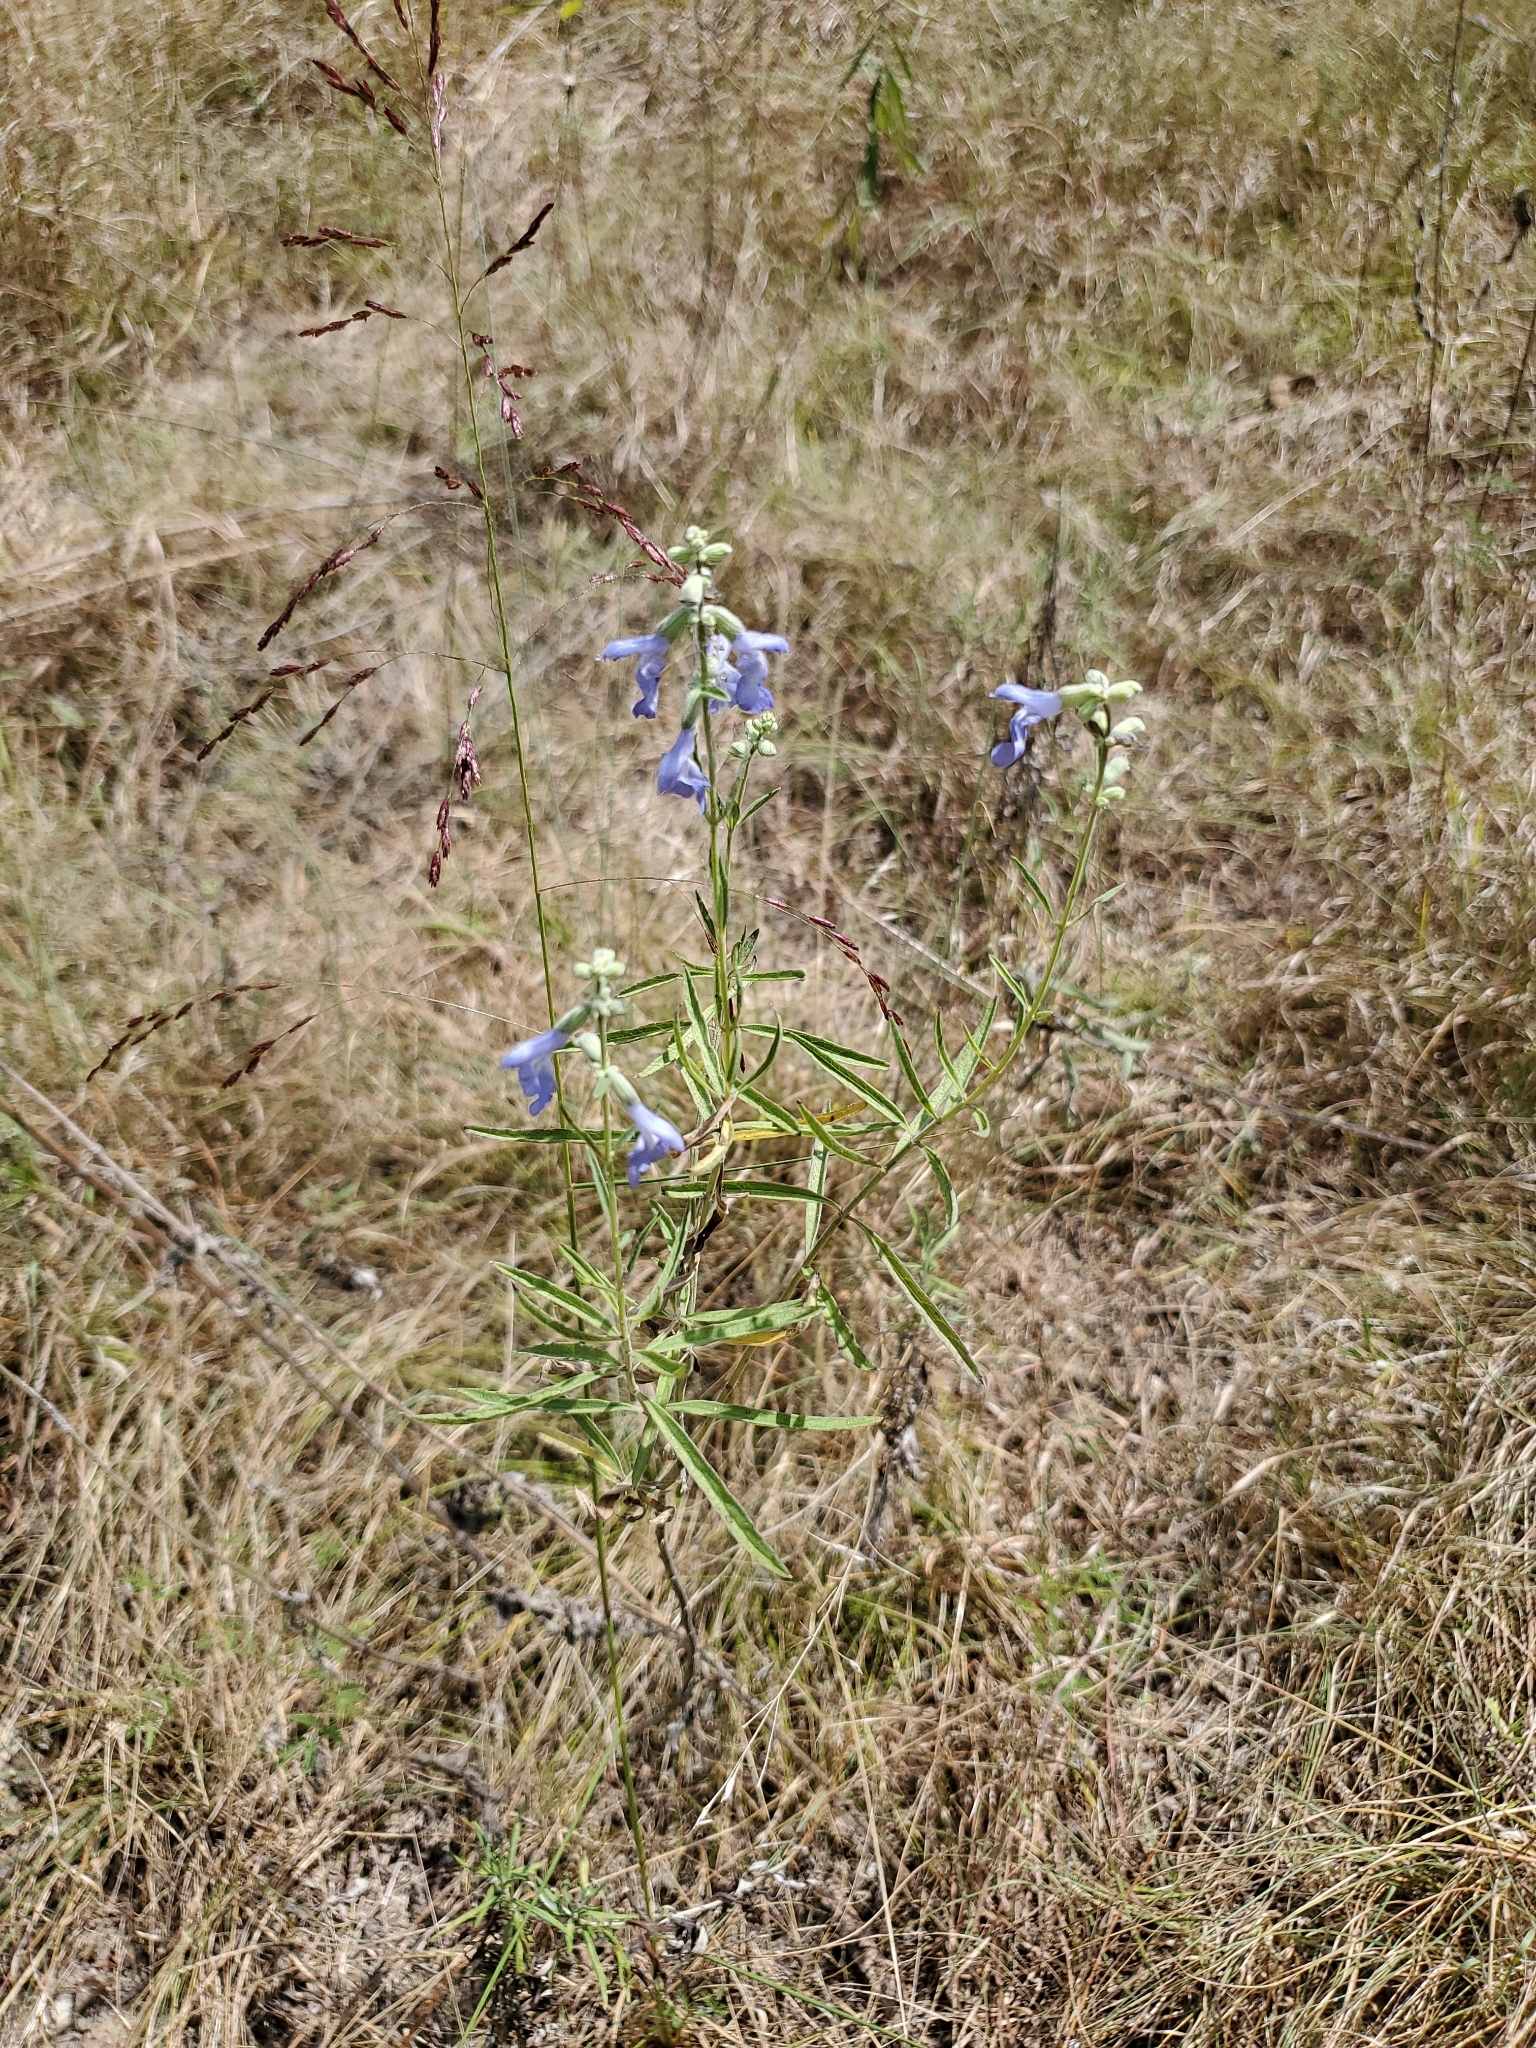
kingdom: Plantae
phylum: Tracheophyta
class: Magnoliopsida
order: Lamiales
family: Lamiaceae
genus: Salvia
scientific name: Salvia azurea
